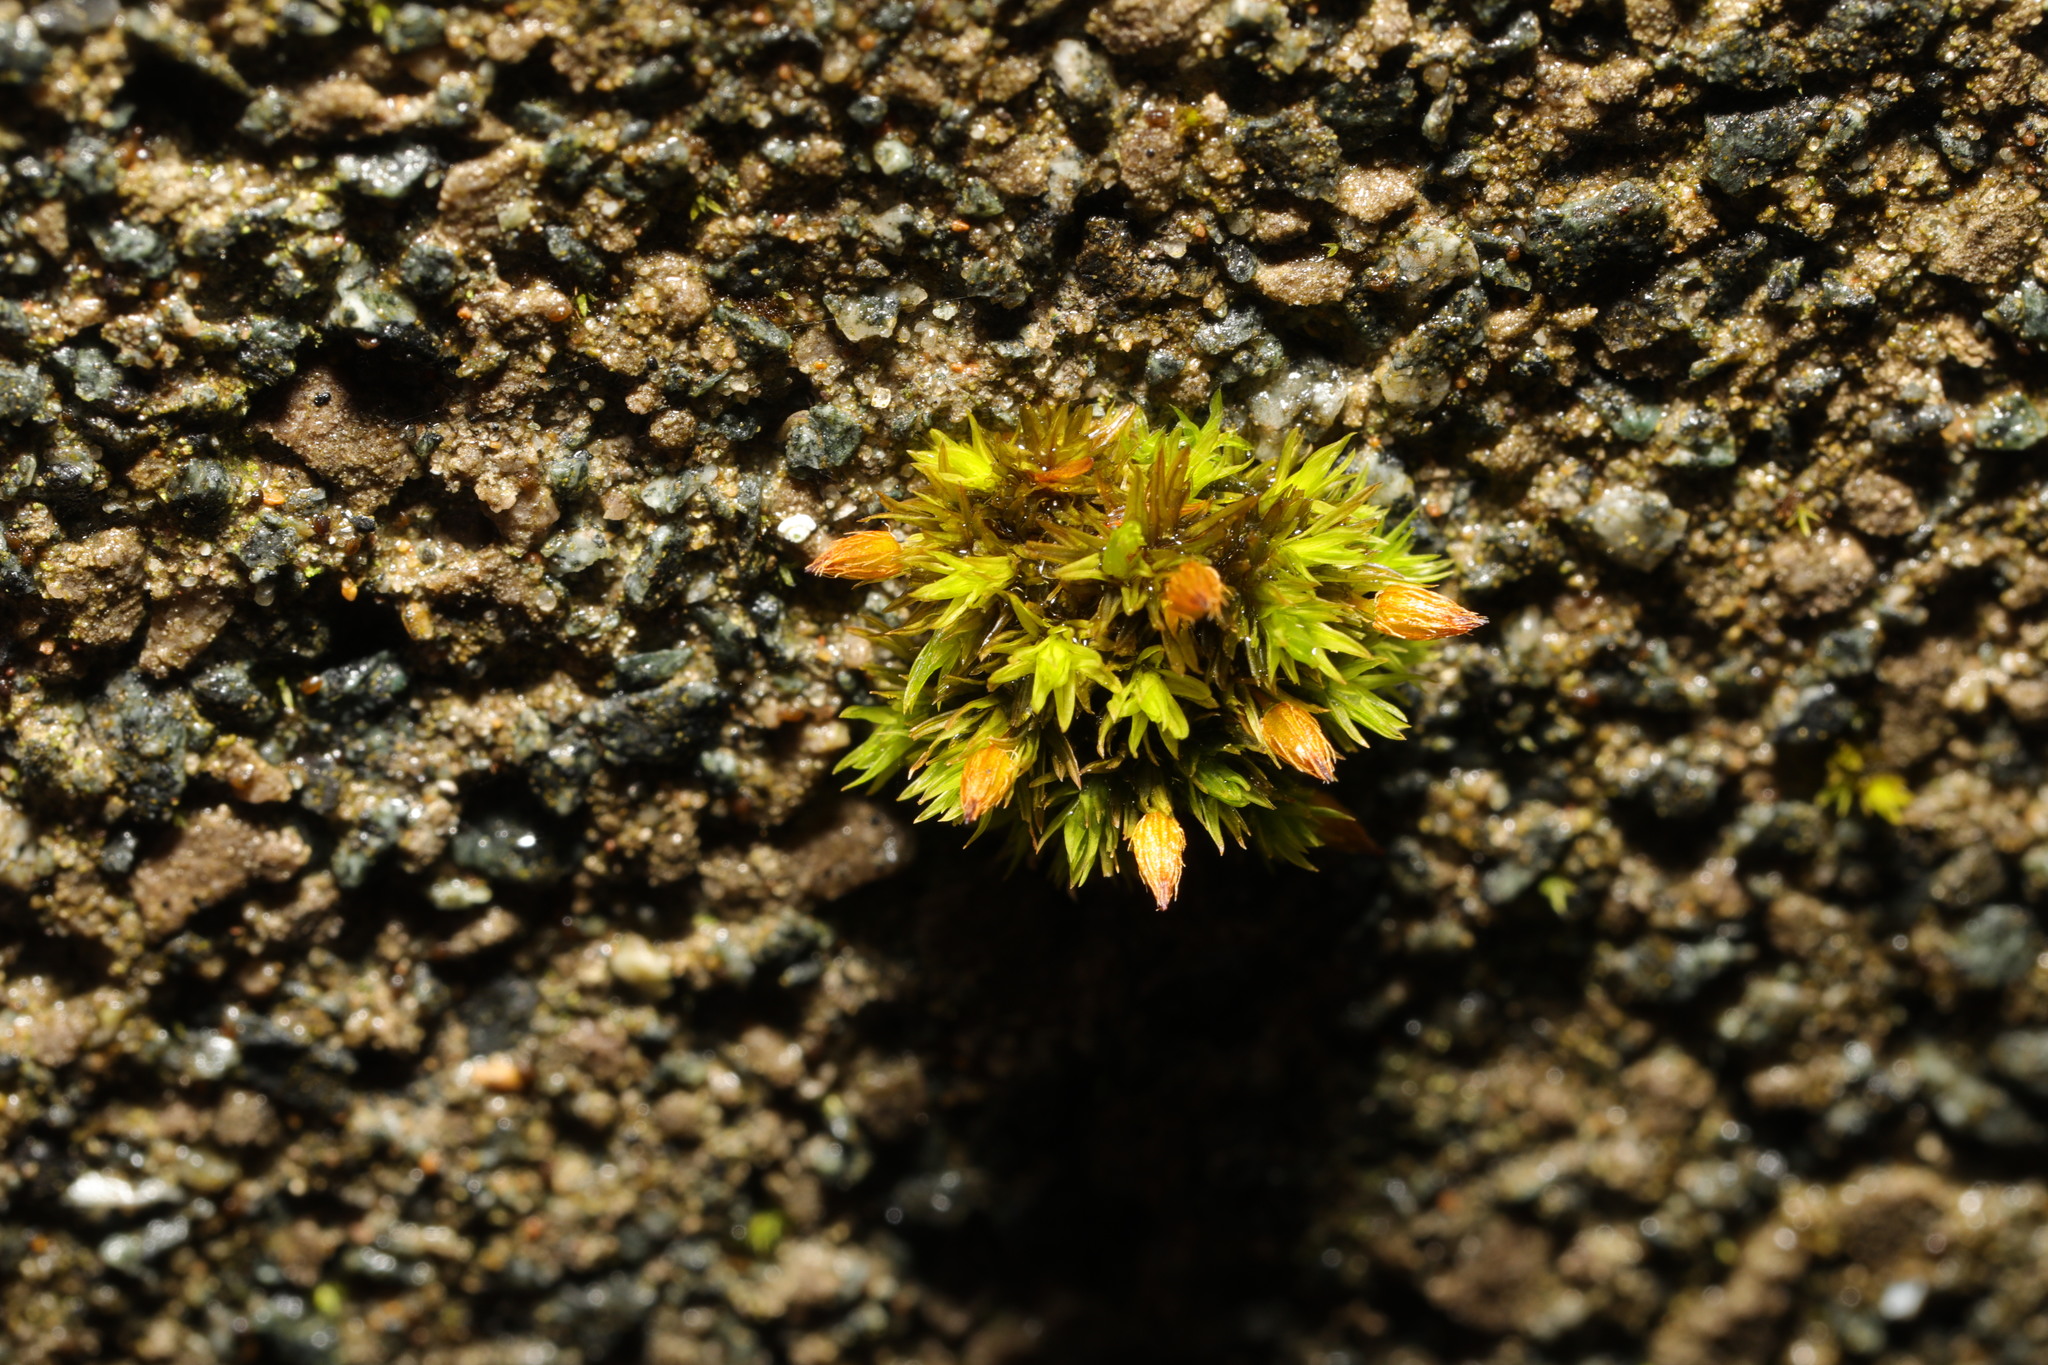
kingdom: Plantae
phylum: Bryophyta
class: Bryopsida
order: Orthotrichales
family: Orthotrichaceae
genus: Orthotrichum
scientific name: Orthotrichum anomalum
